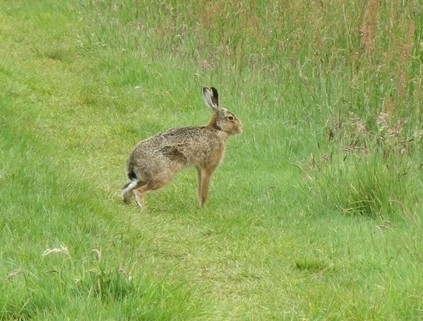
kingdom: Animalia
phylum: Chordata
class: Mammalia
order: Lagomorpha
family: Leporidae
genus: Lepus
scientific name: Lepus europaeus
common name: European hare
